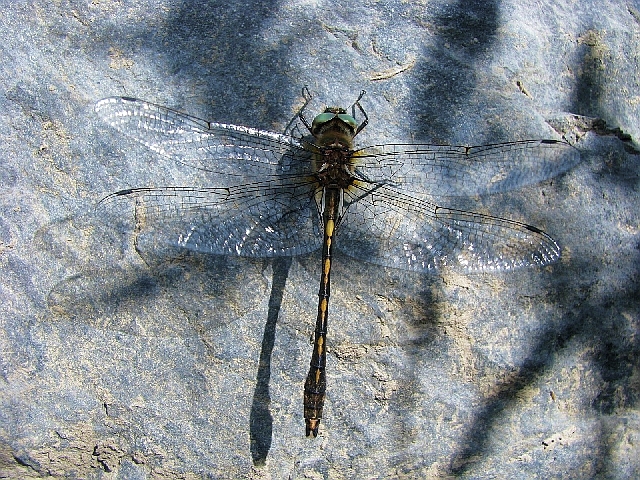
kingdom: Animalia
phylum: Arthropoda
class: Insecta
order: Odonata
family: Corduliidae
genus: Oxygastra
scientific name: Oxygastra curtisii
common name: Orange-spotted emerald
